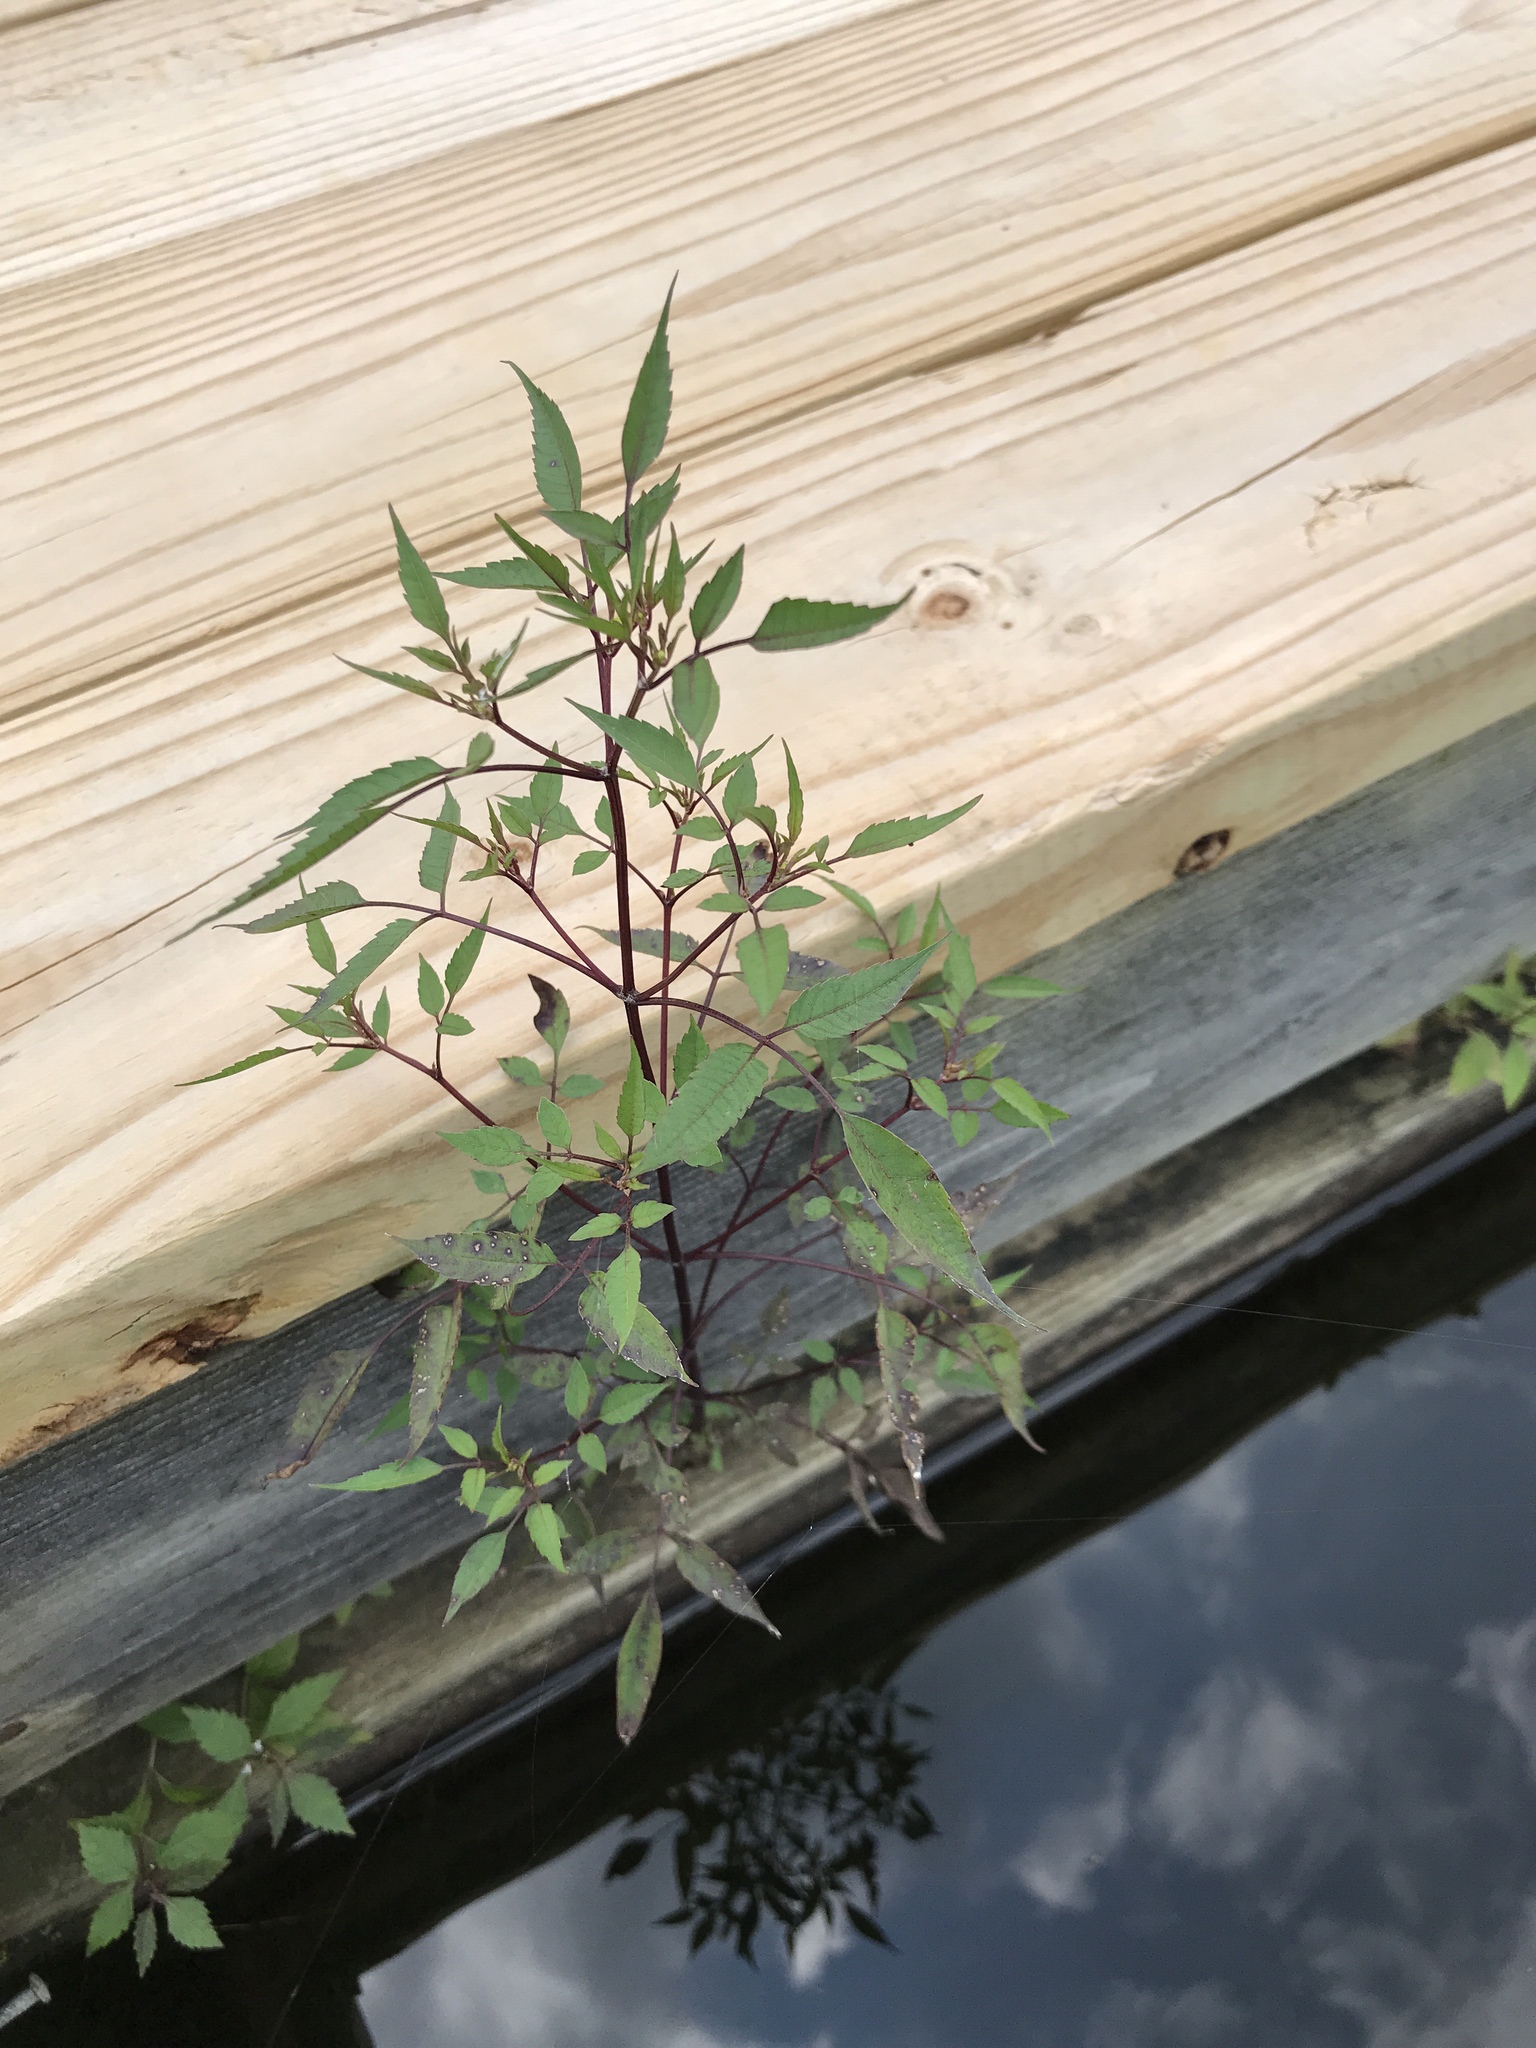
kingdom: Plantae
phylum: Tracheophyta
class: Magnoliopsida
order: Asterales
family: Asteraceae
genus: Bidens
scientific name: Bidens frondosa
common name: Beggarticks
